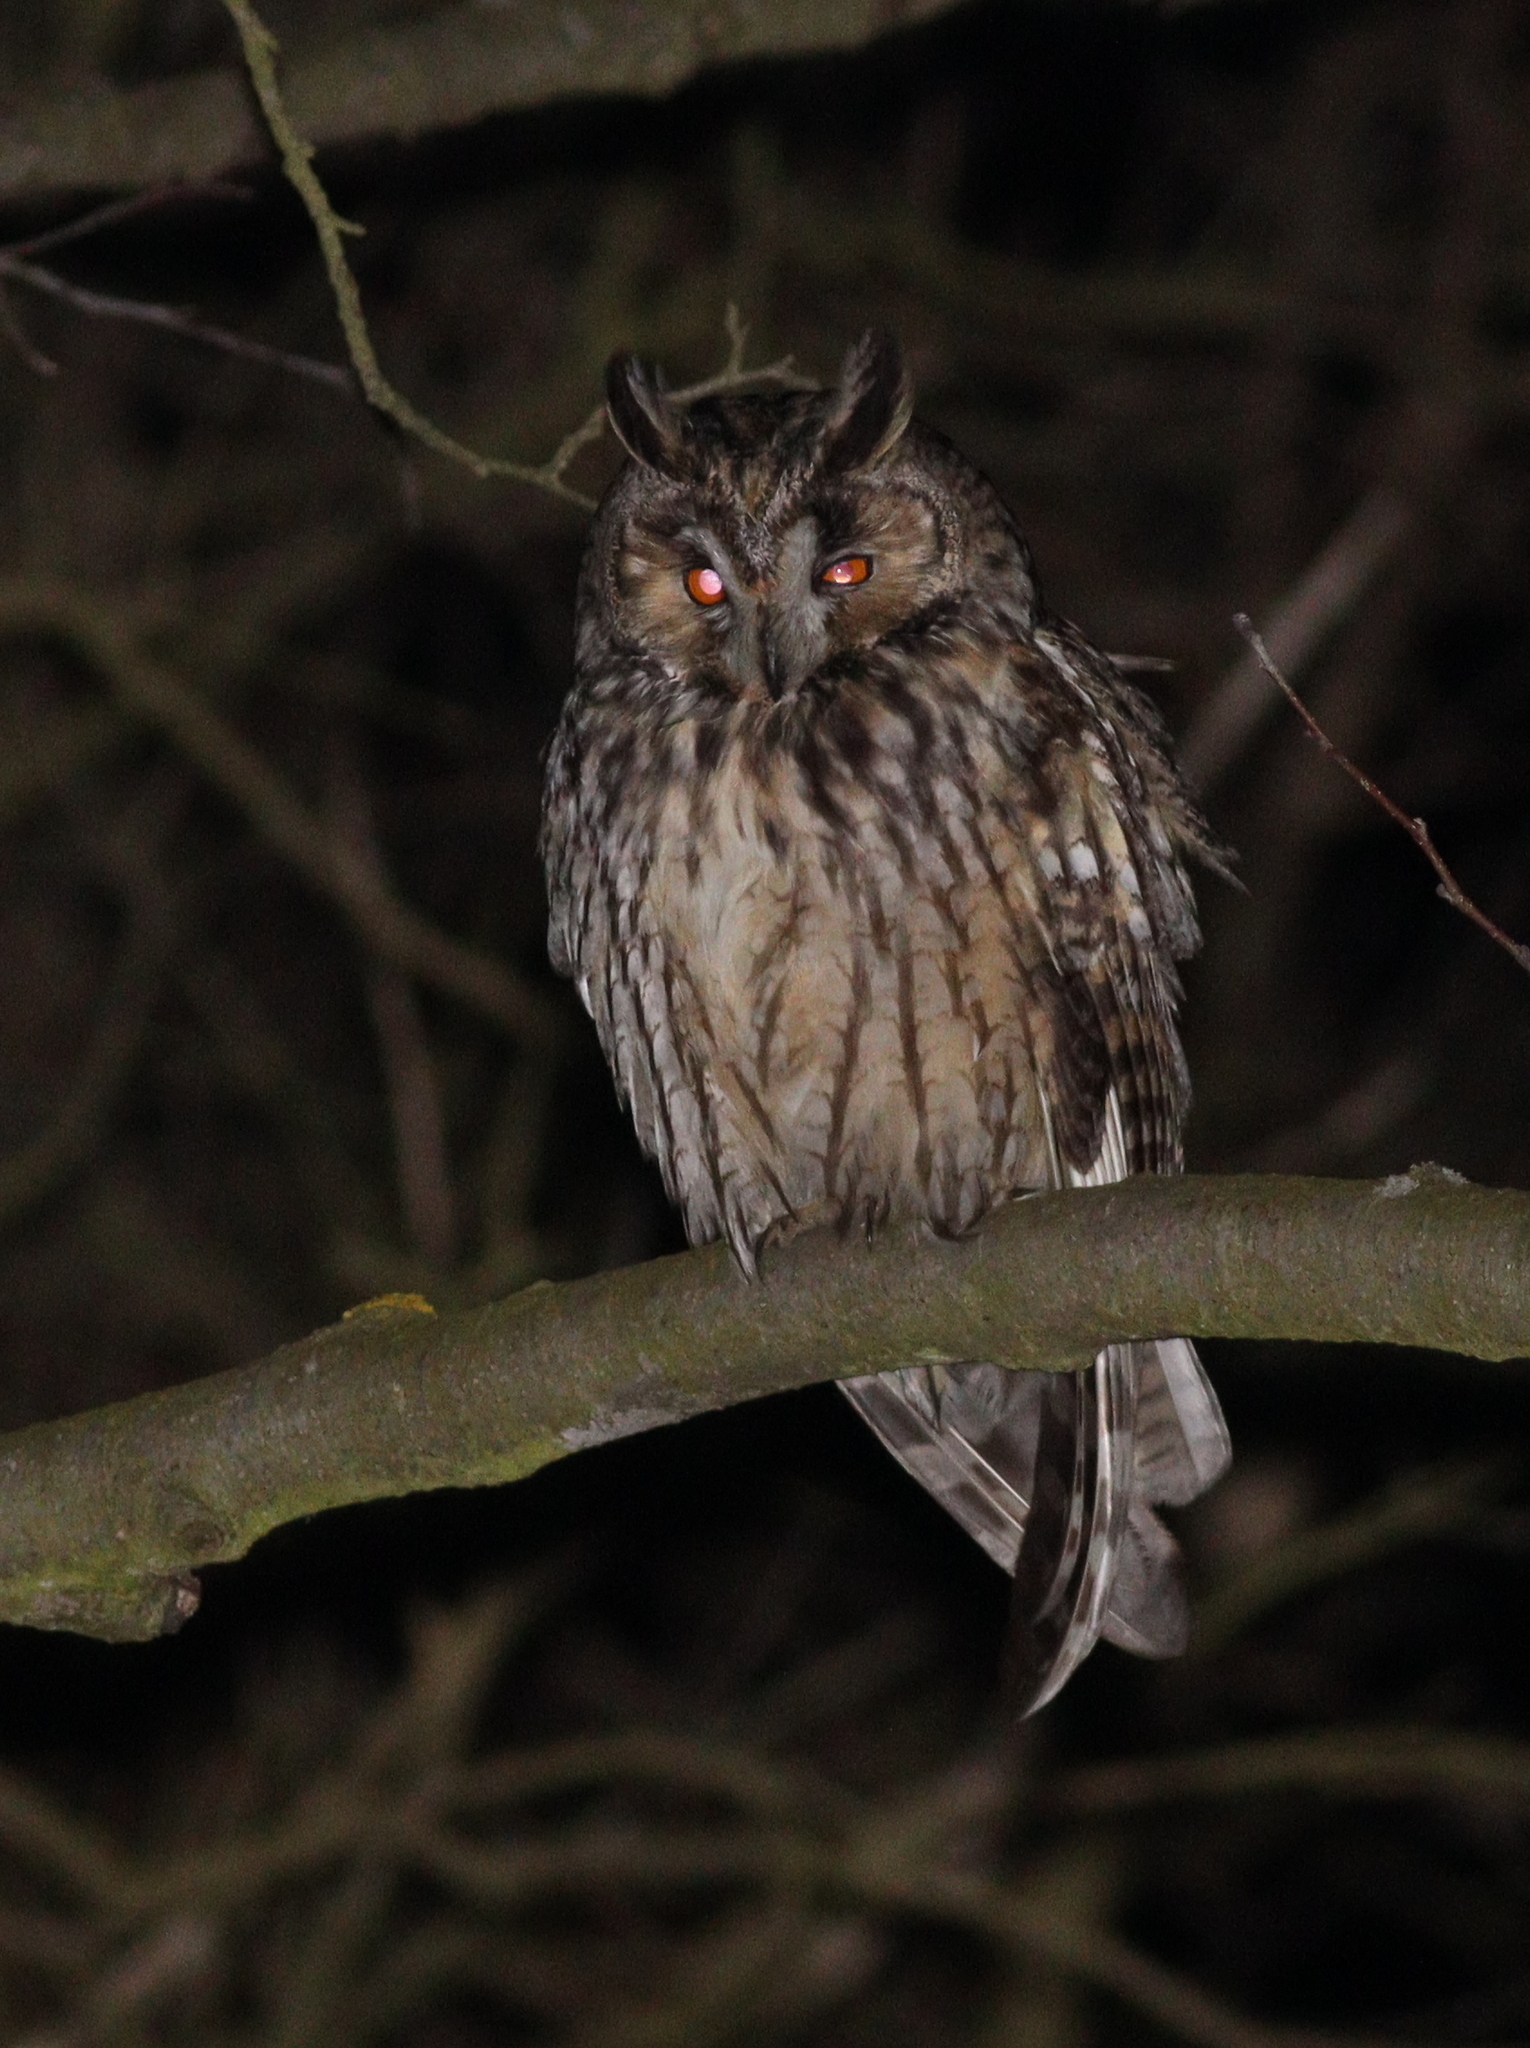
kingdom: Animalia
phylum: Chordata
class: Aves
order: Strigiformes
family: Strigidae
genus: Asio
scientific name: Asio otus
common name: Long-eared owl
